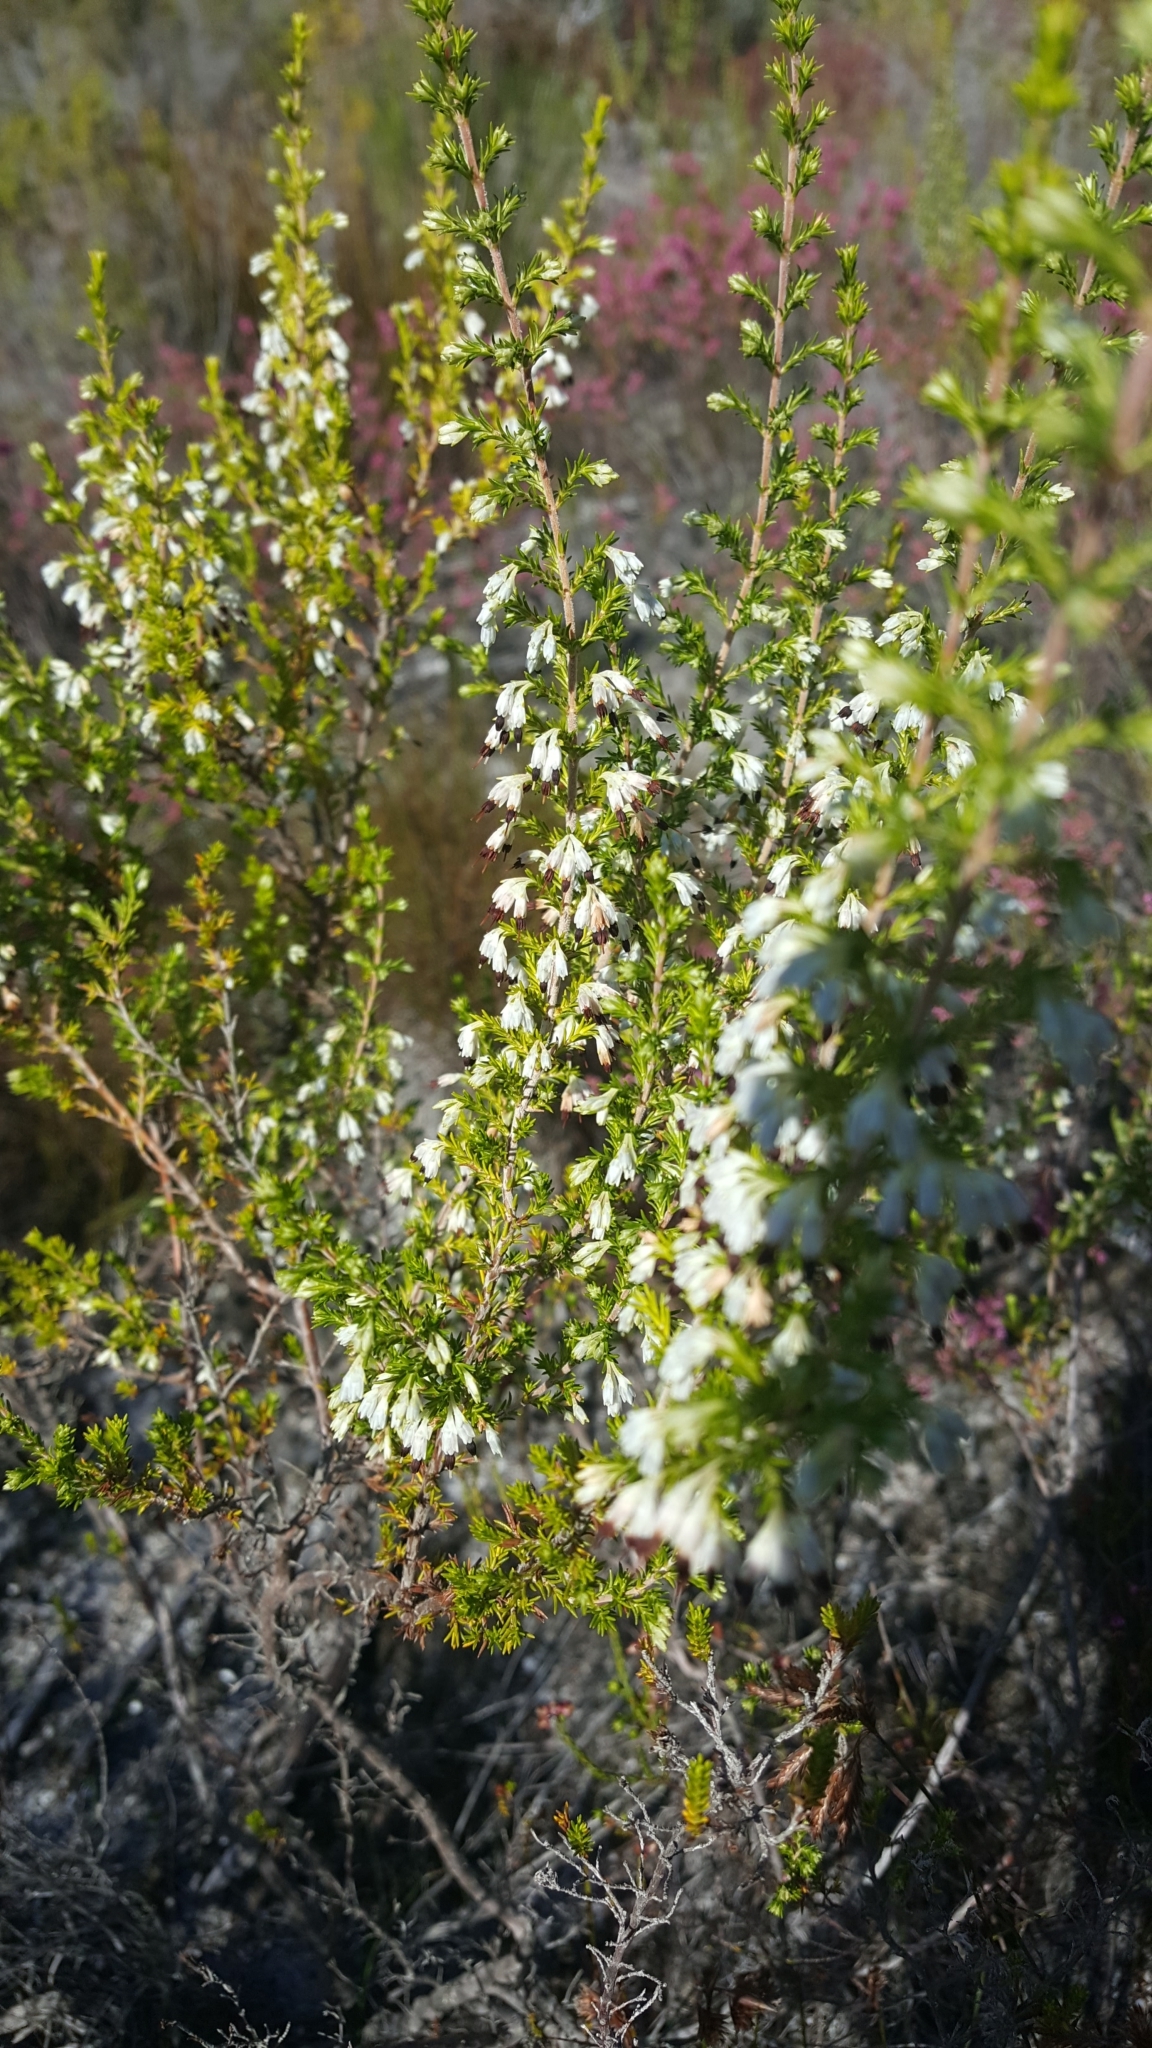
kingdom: Plantae
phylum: Tracheophyta
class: Magnoliopsida
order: Ericales
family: Ericaceae
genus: Erica
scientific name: Erica imbricata
